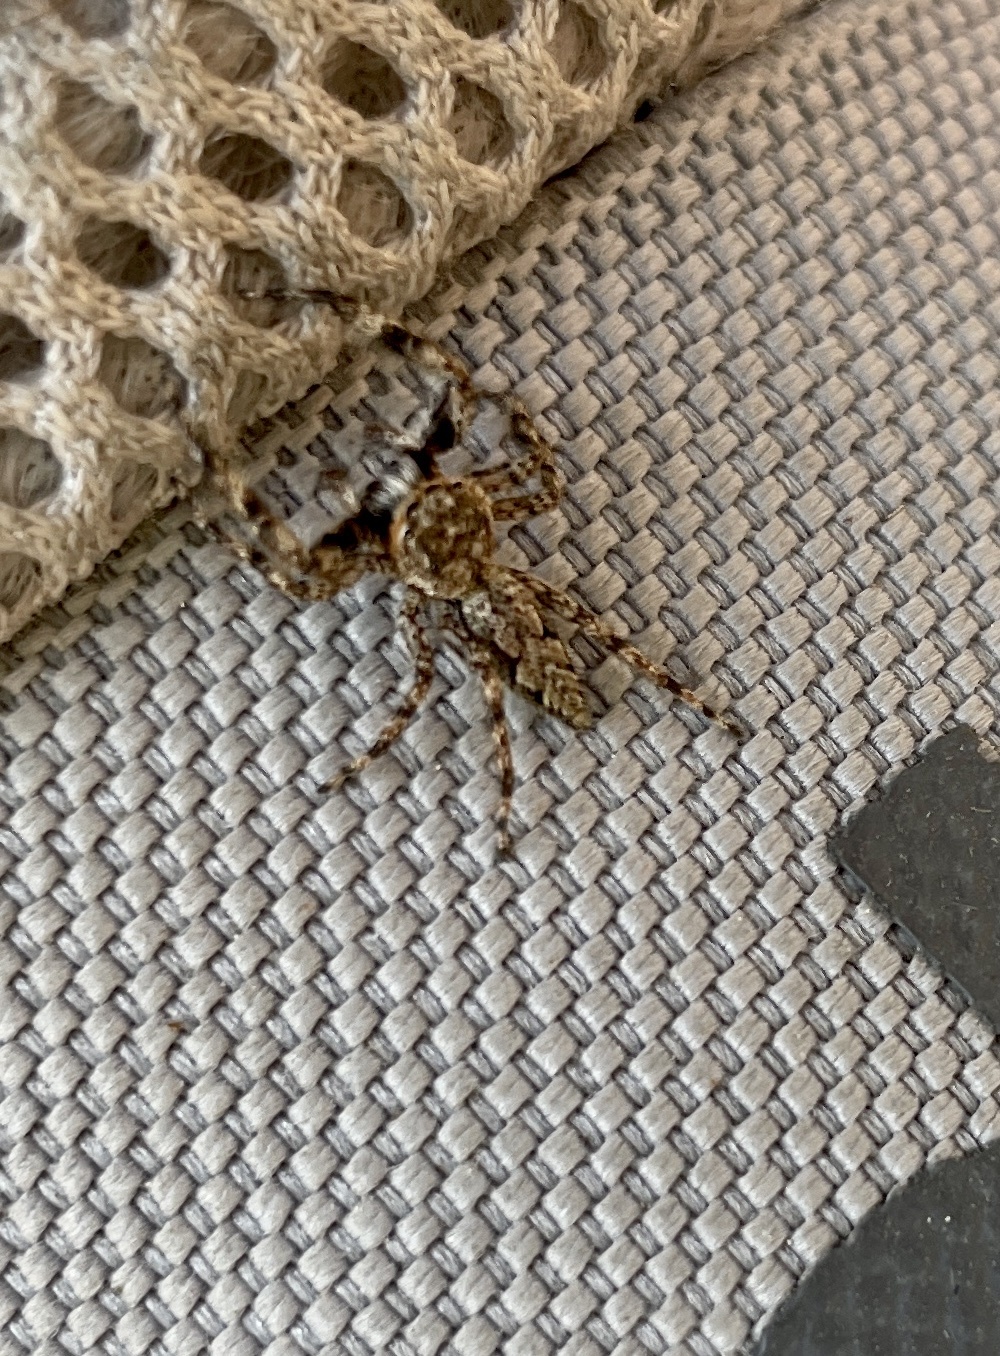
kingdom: Animalia
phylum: Arthropoda
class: Arachnida
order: Araneae
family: Salticidae
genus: Platycryptus
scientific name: Platycryptus undatus
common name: Tan jumping spider
